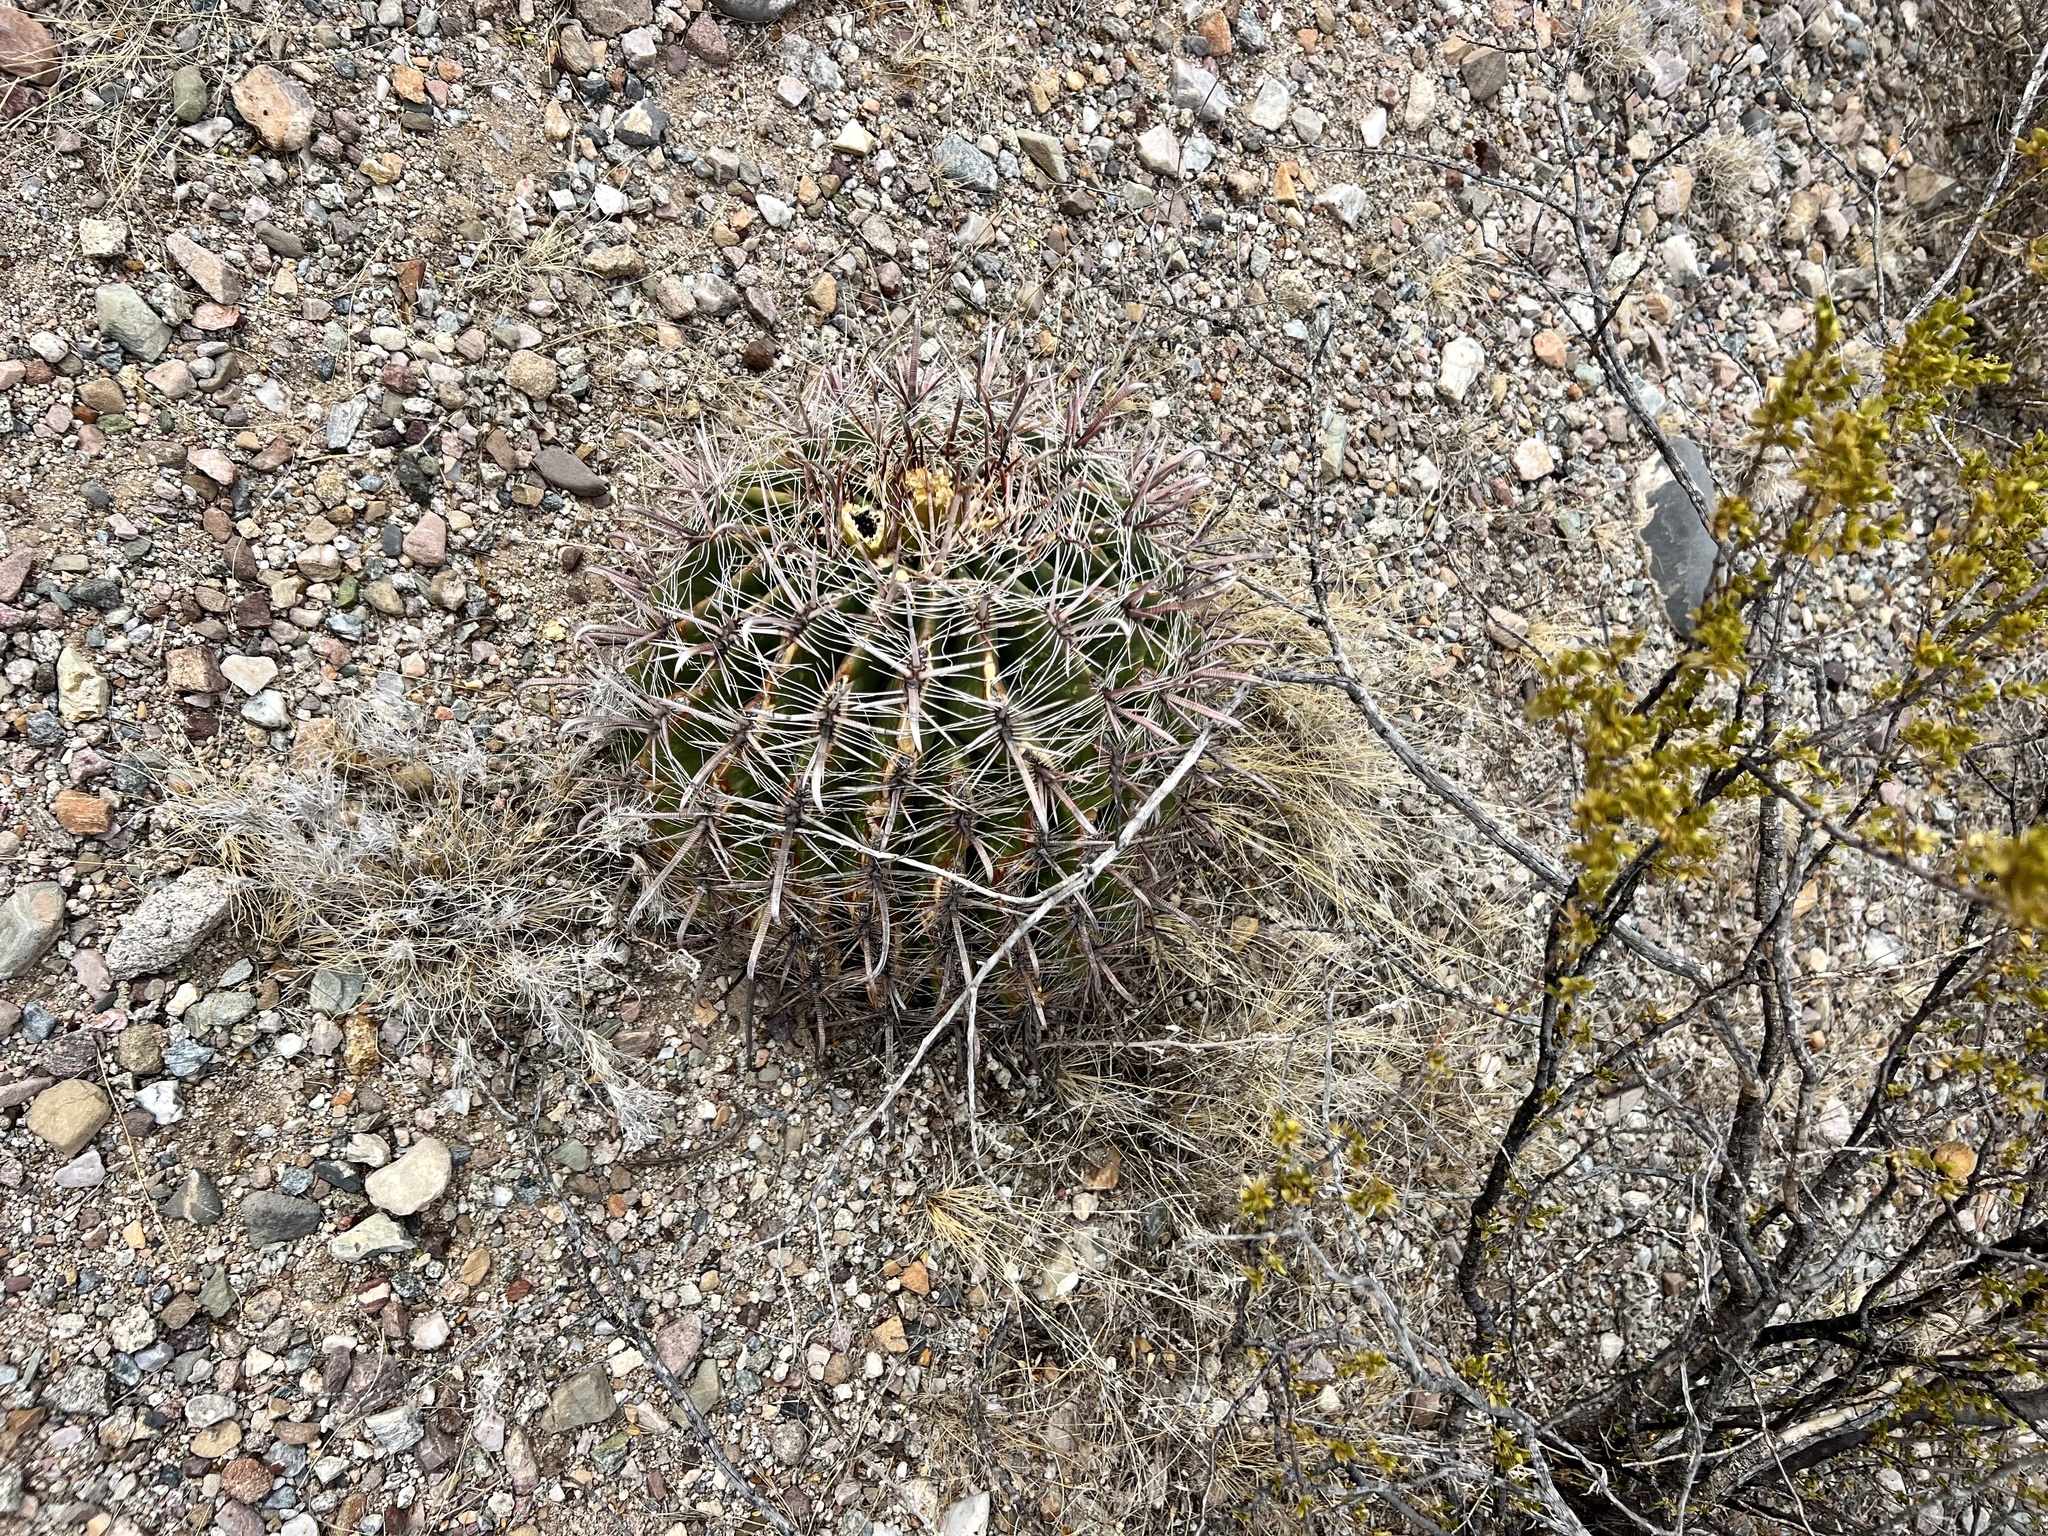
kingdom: Plantae
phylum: Tracheophyta
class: Magnoliopsida
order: Caryophyllales
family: Cactaceae
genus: Ferocactus
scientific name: Ferocactus wislizeni
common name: Candy barrel cactus
